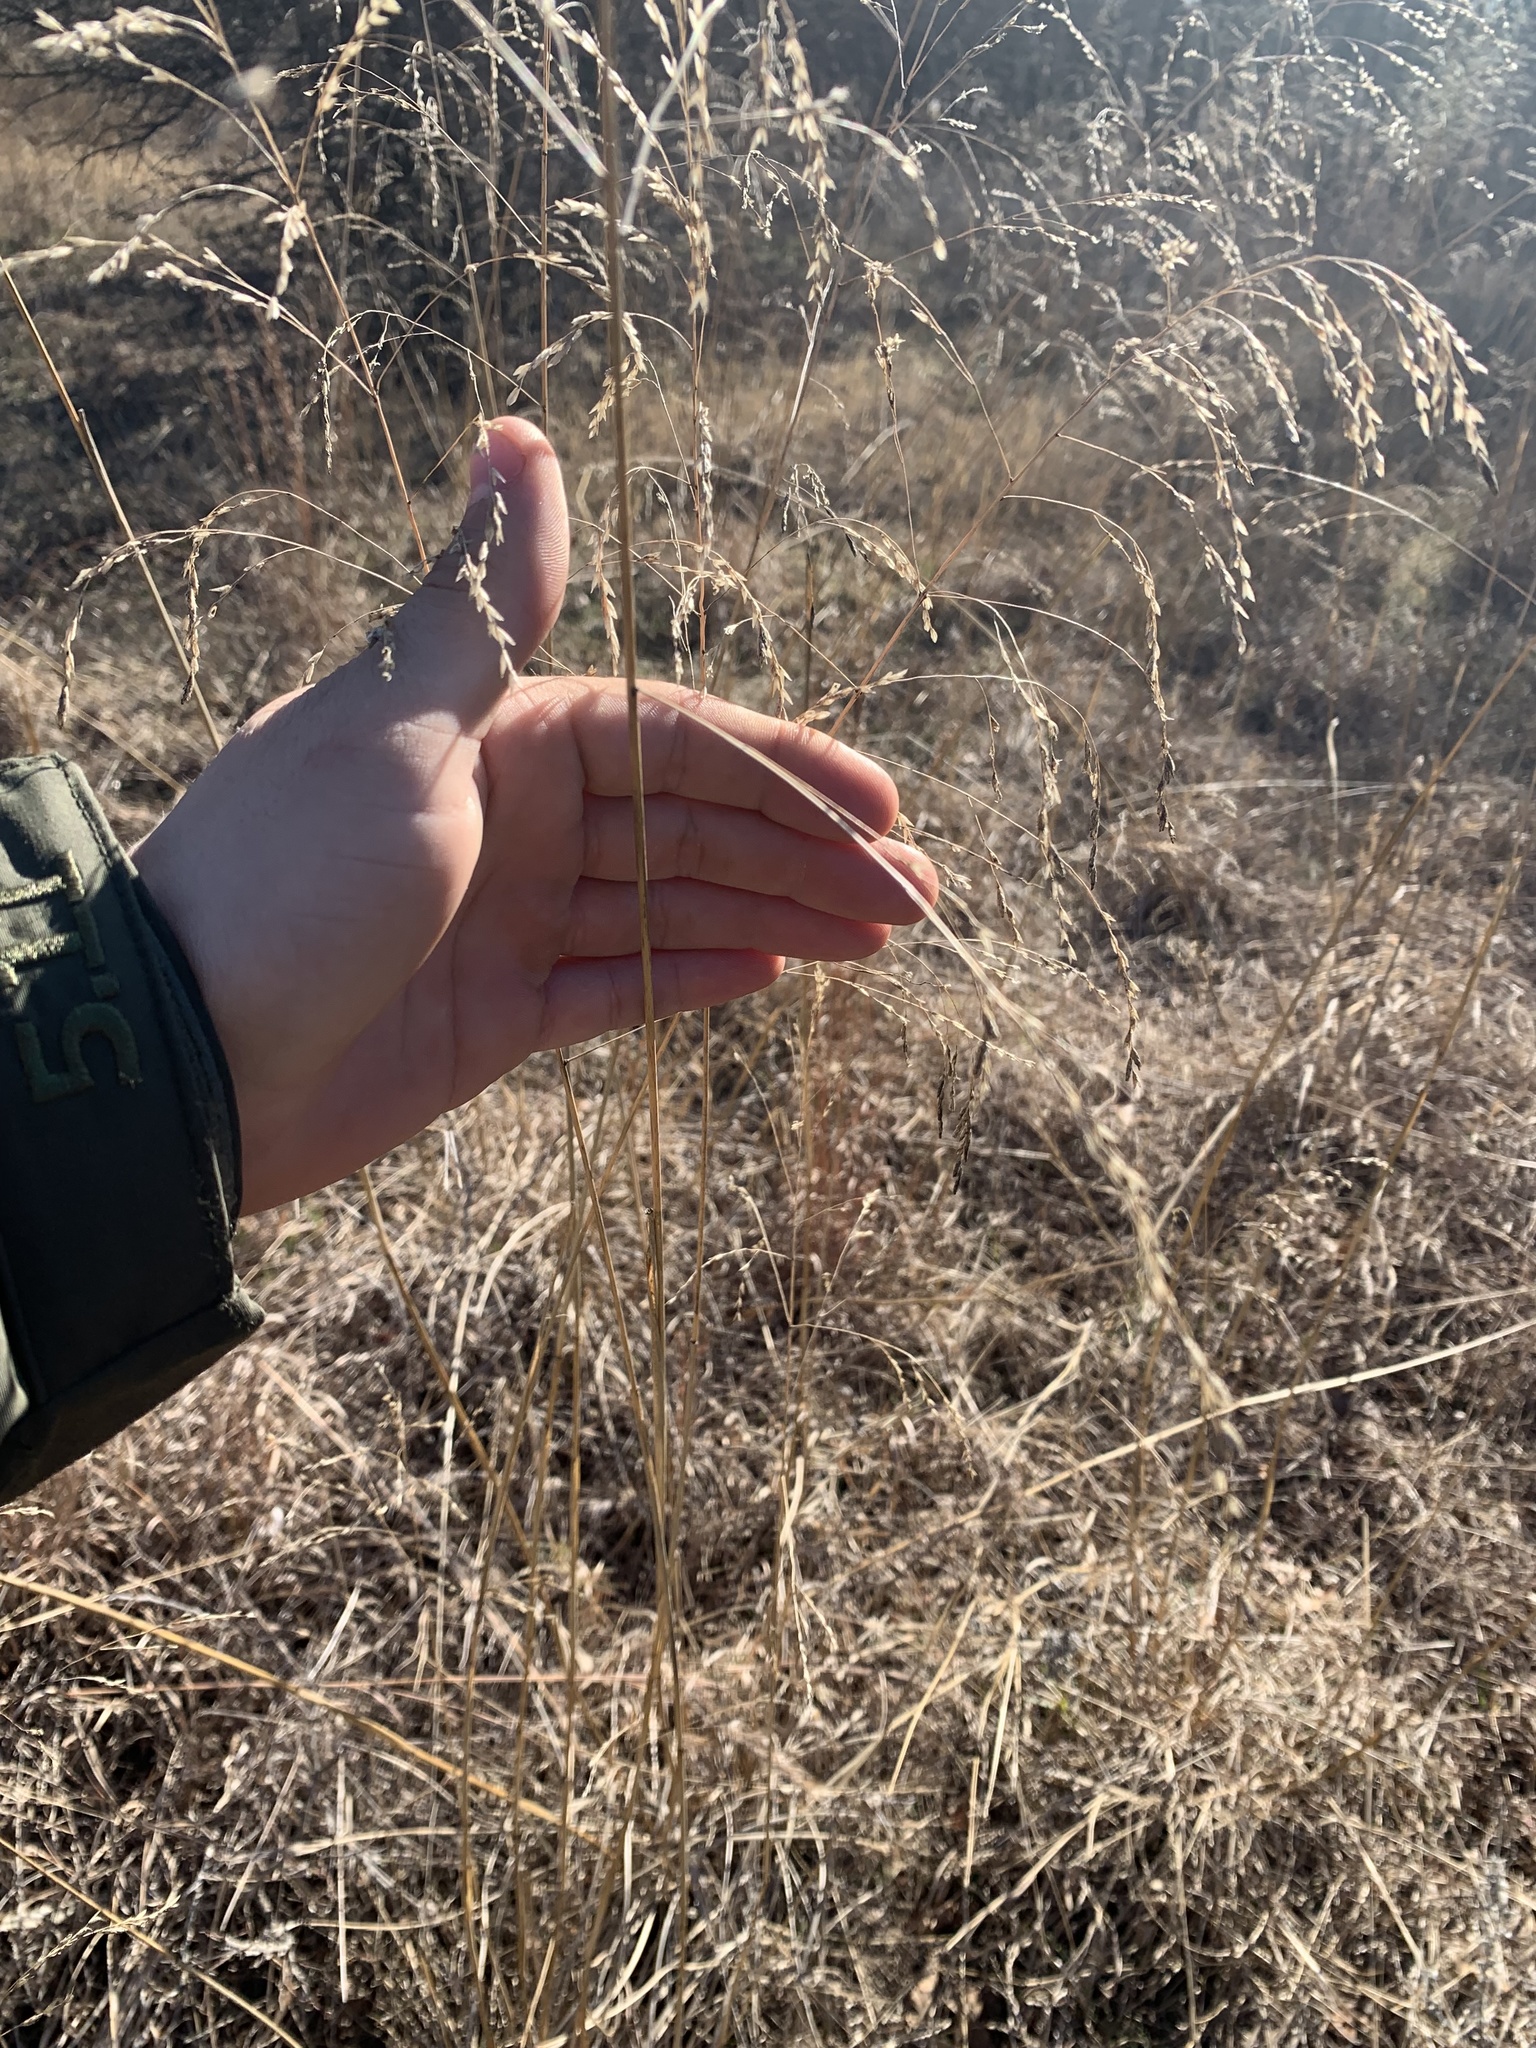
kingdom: Plantae
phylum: Tracheophyta
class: Liliopsida
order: Poales
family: Poaceae
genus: Tridens
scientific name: Tridens flavus
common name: Purpletop
